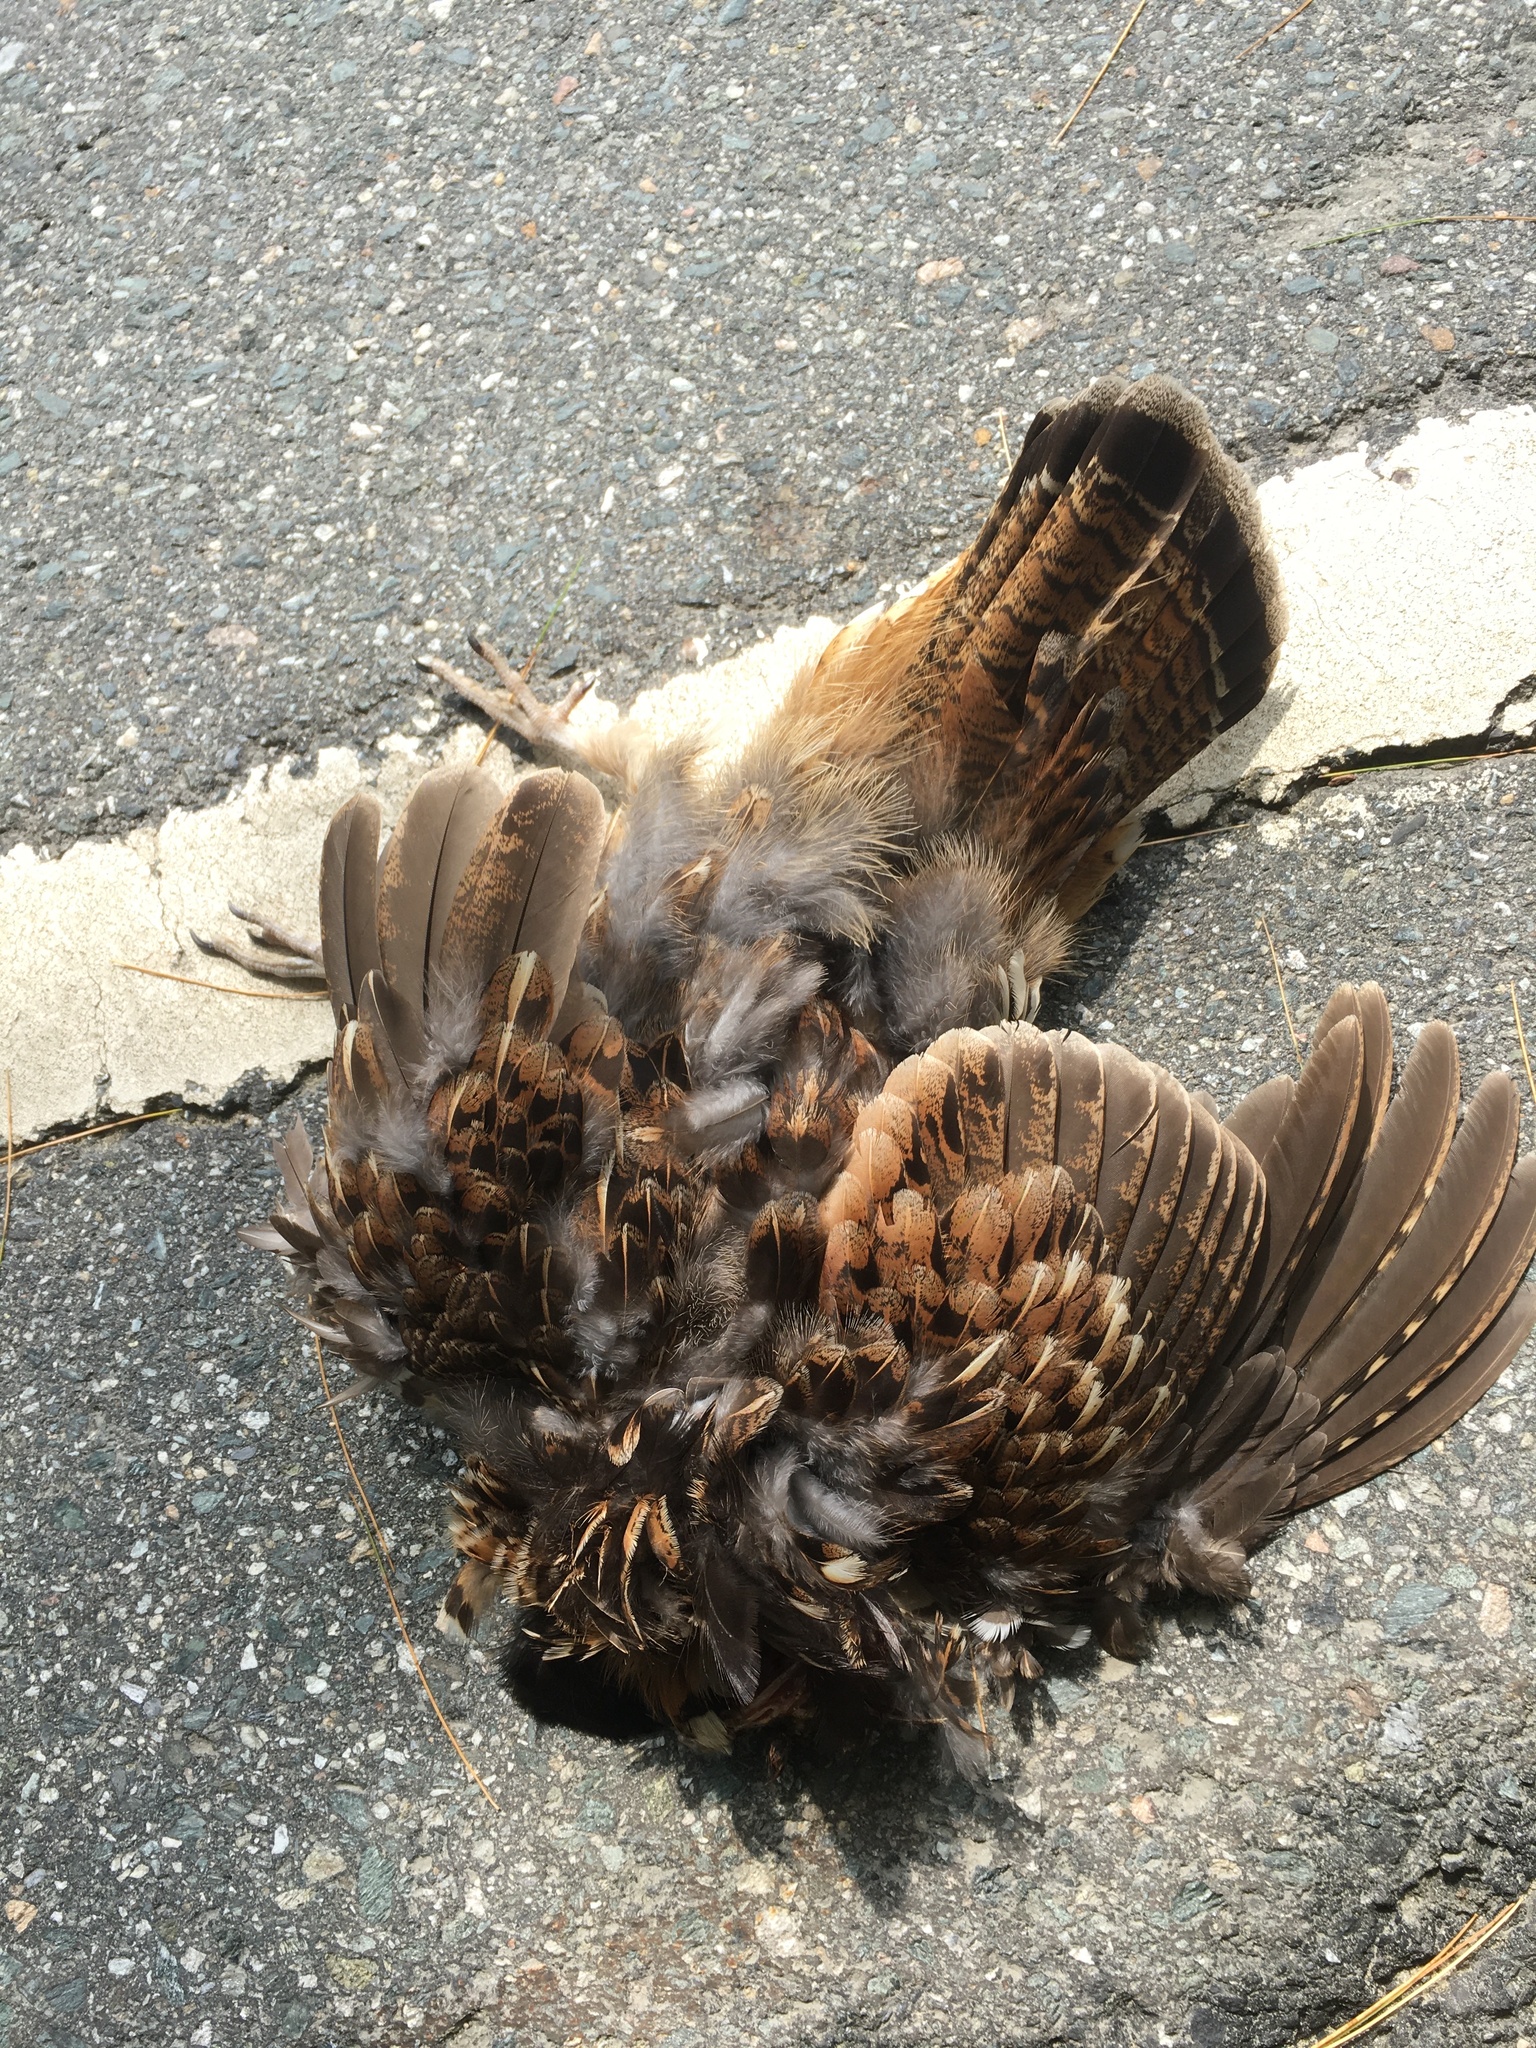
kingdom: Animalia
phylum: Chordata
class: Aves
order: Galliformes
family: Phasianidae
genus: Bonasa
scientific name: Bonasa umbellus
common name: Ruffed grouse
